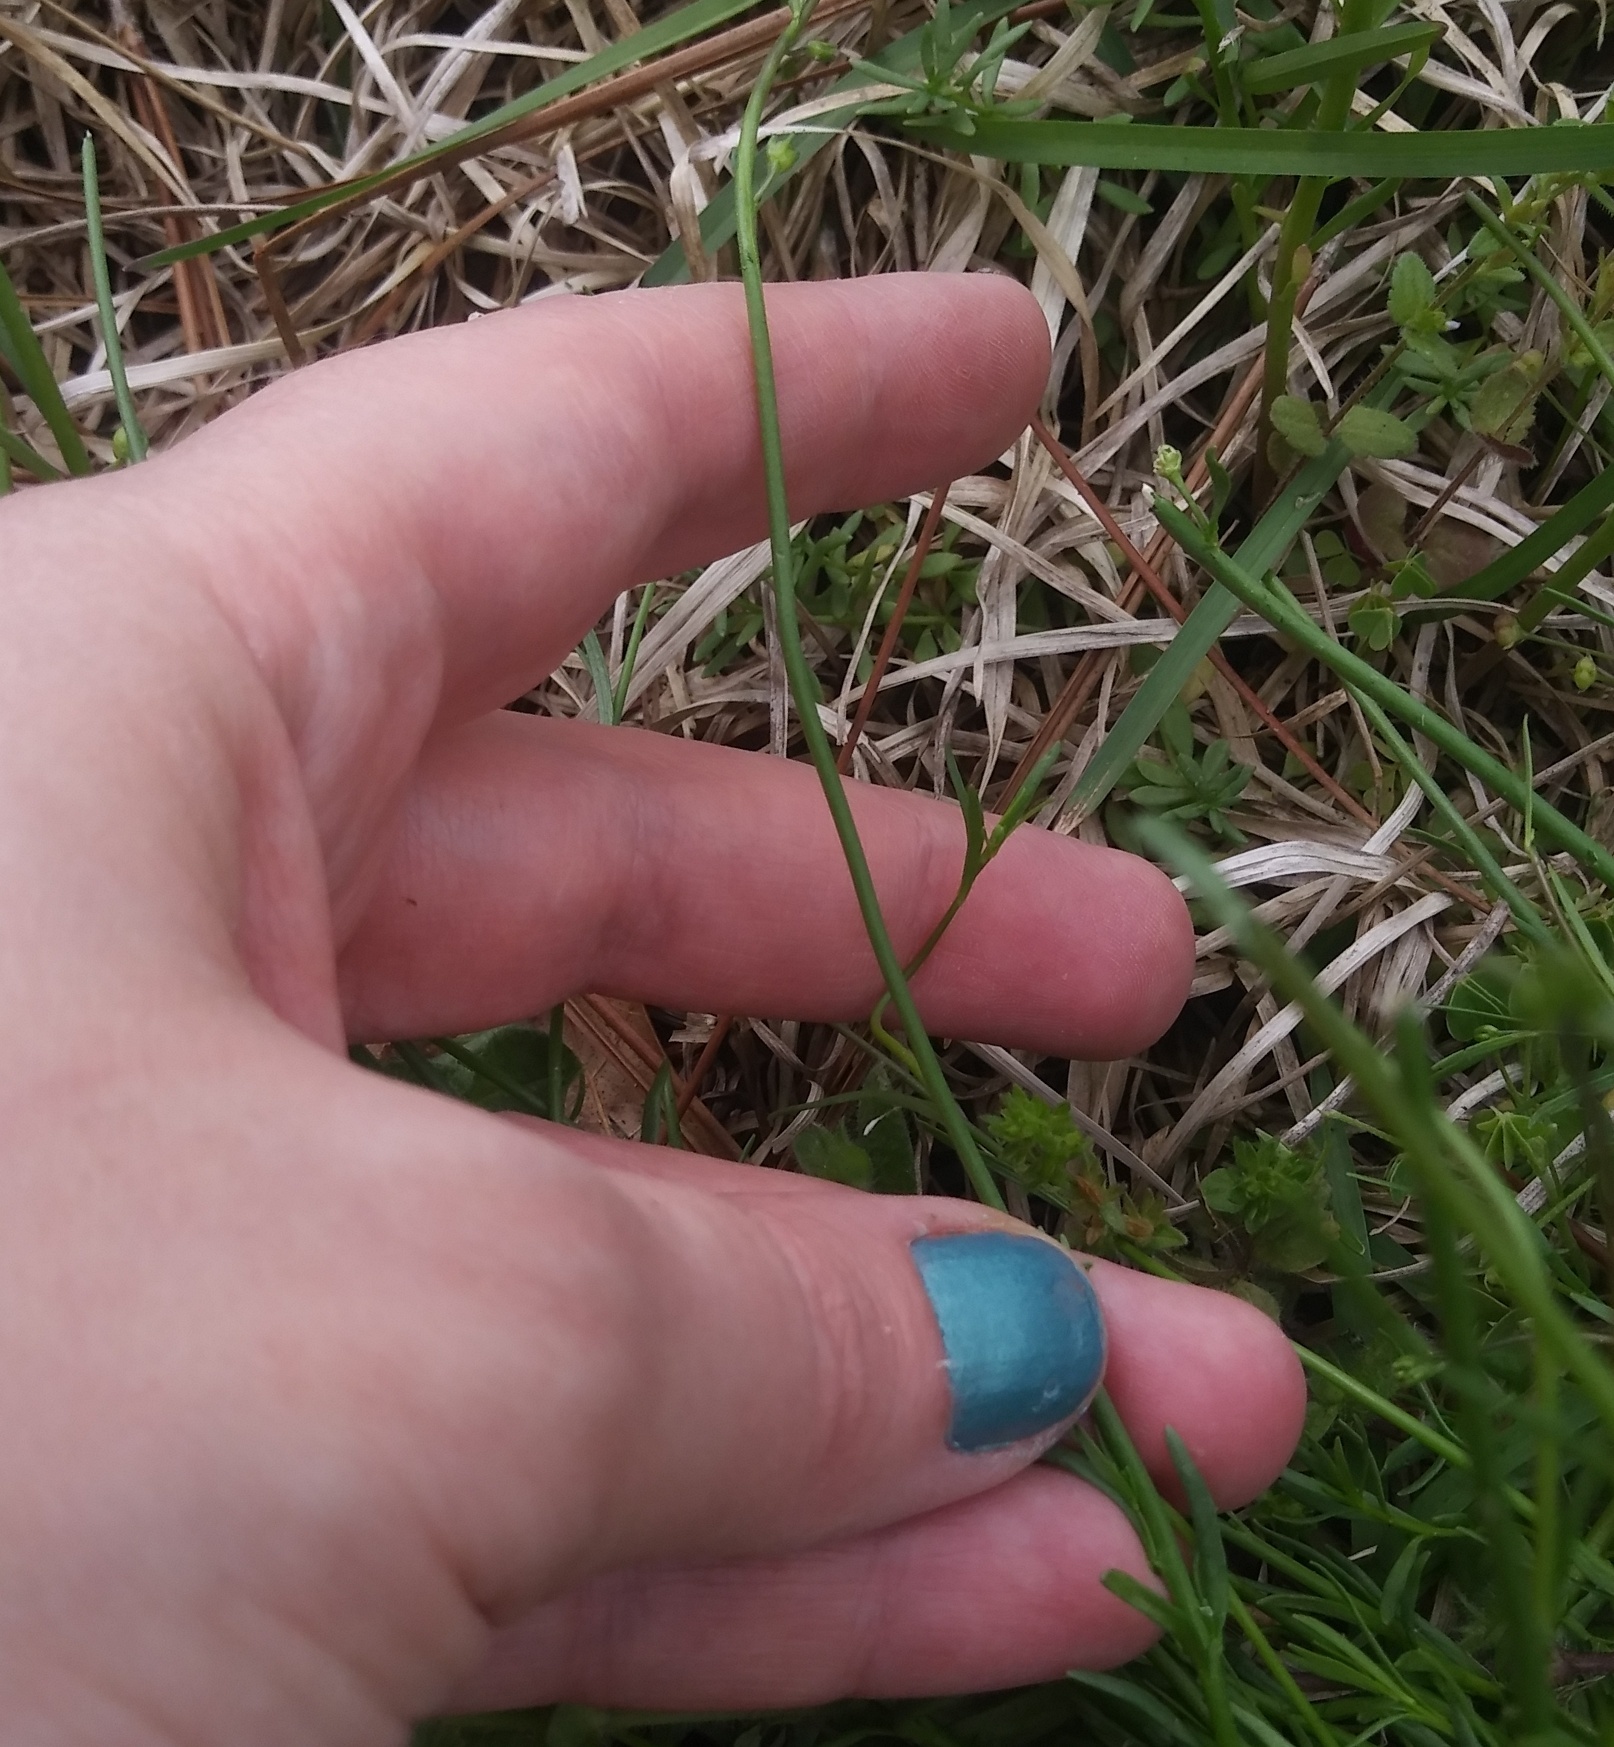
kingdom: Plantae
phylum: Tracheophyta
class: Magnoliopsida
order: Lamiales
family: Plantaginaceae
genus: Nuttallanthus
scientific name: Nuttallanthus canadensis
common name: Blue toadflax
